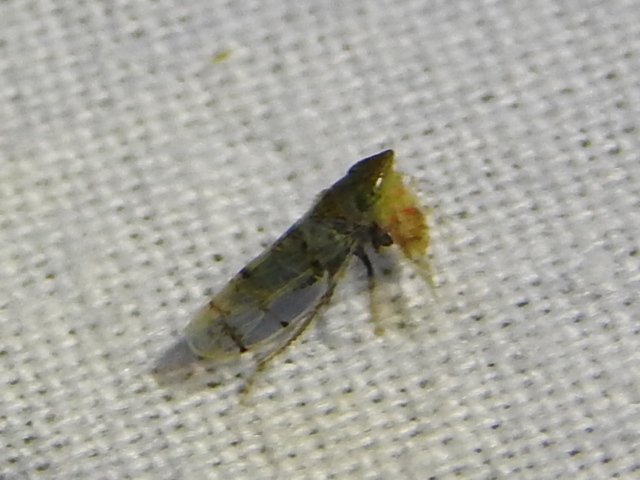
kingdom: Animalia
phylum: Arthropoda
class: Insecta
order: Hemiptera
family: Cicadellidae
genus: Japananus
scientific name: Japananus hyalinus
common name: The japanese maple leafhopper
